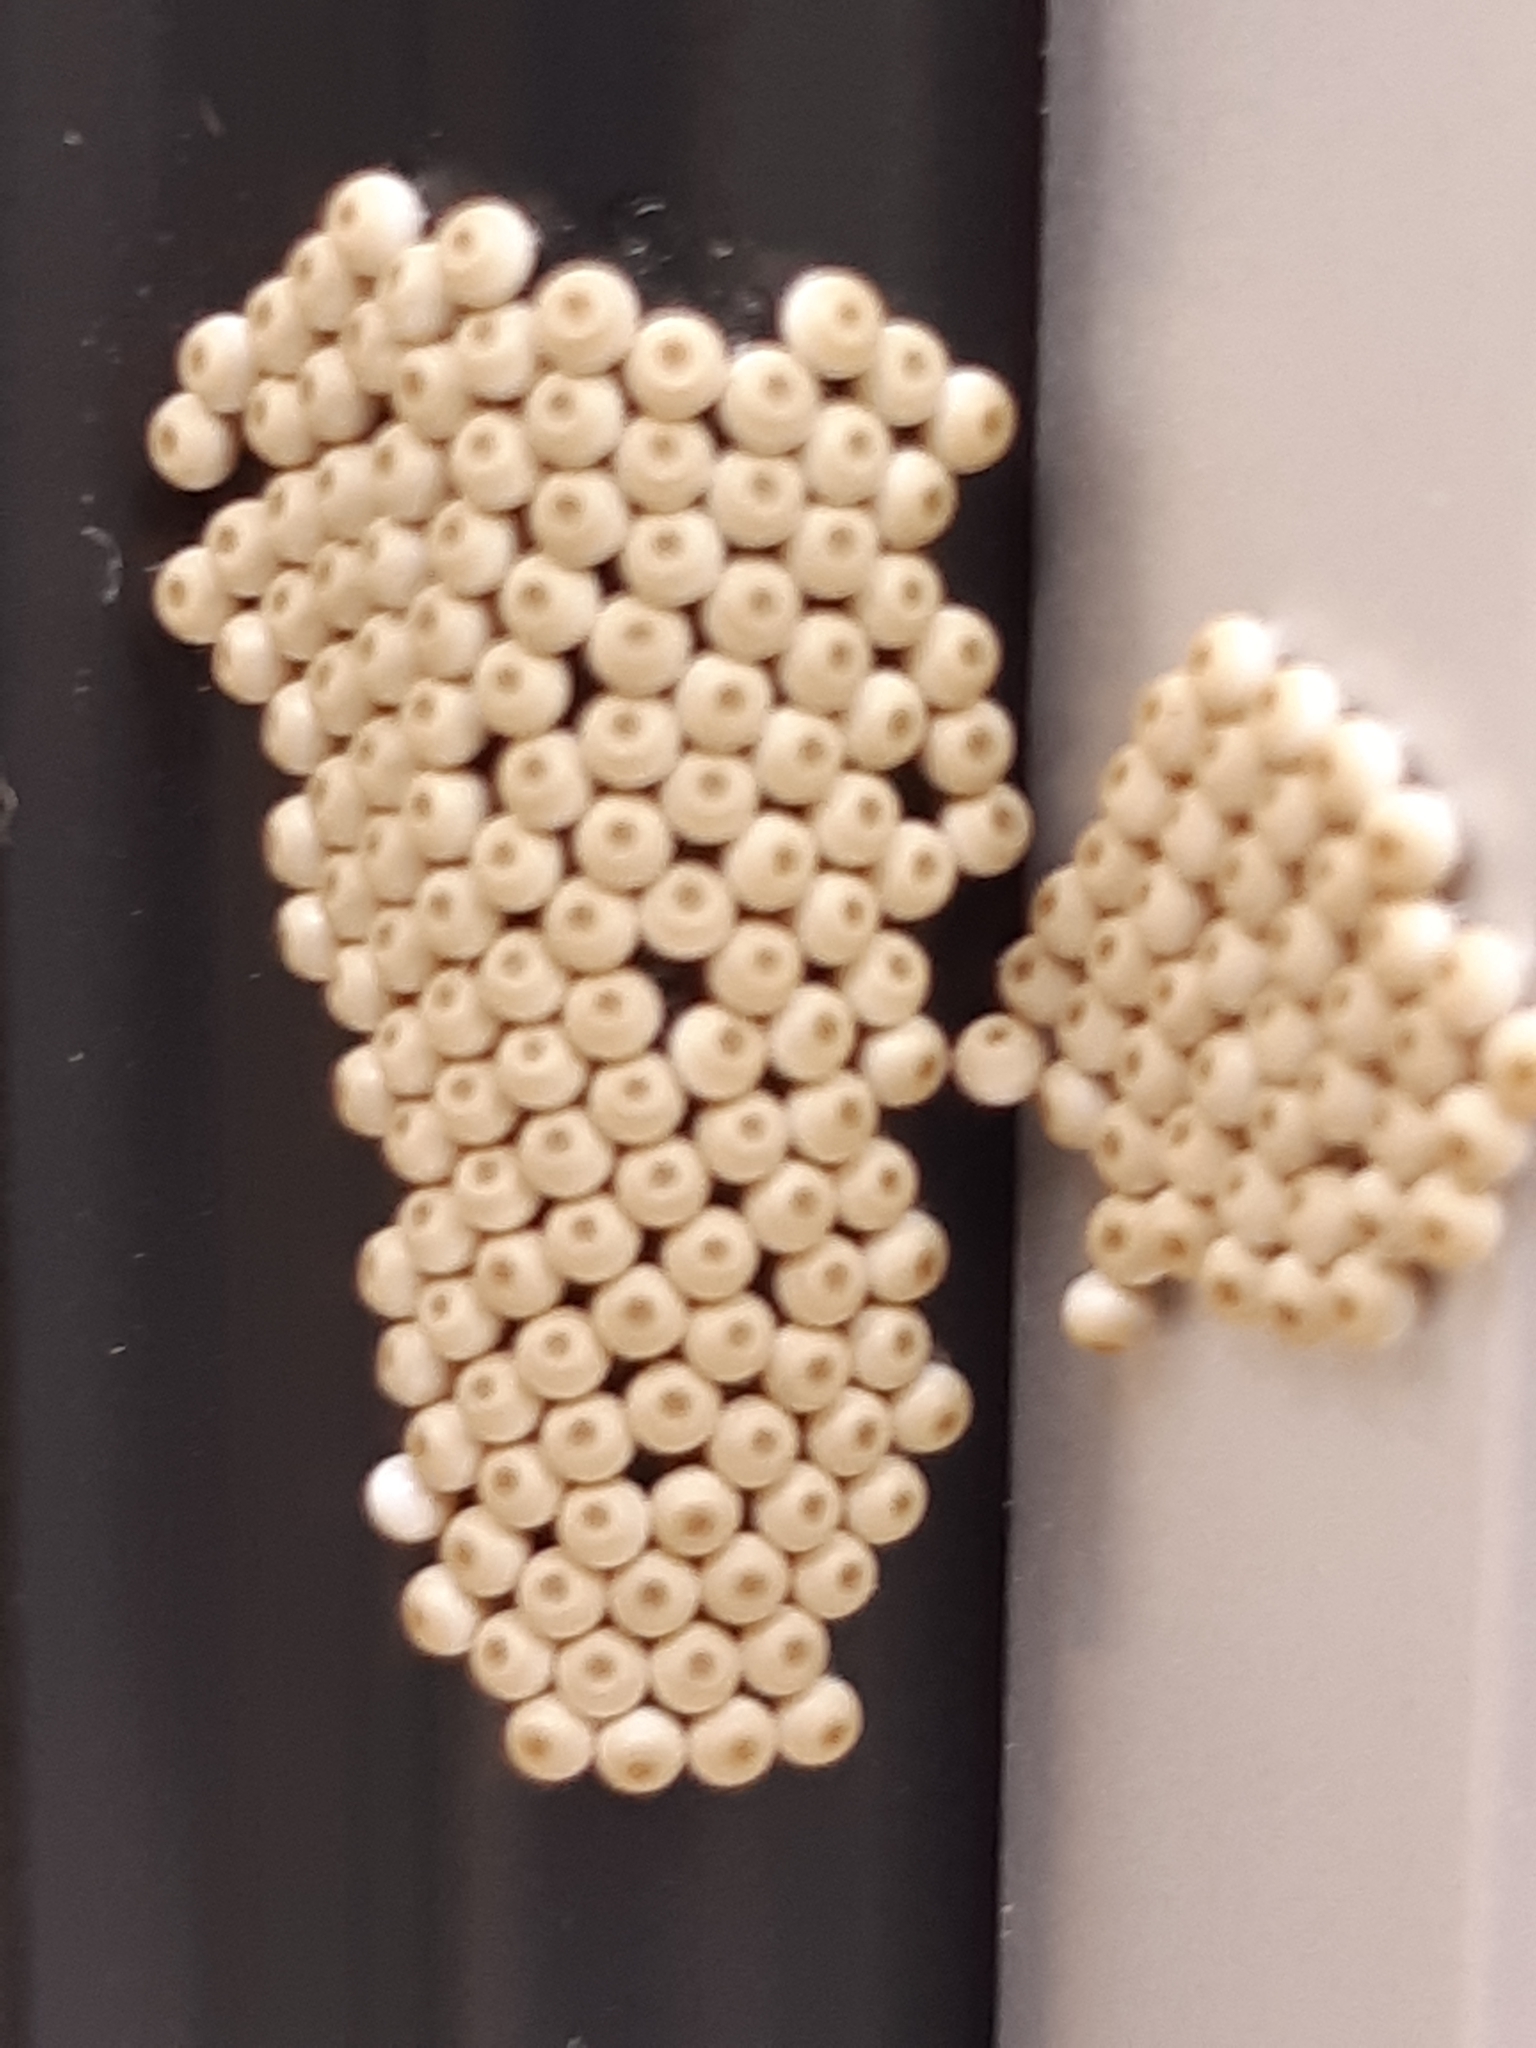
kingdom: Animalia
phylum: Arthropoda
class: Insecta
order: Lepidoptera
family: Erebidae
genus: Orgyia
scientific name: Orgyia antiqua
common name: Vapourer
